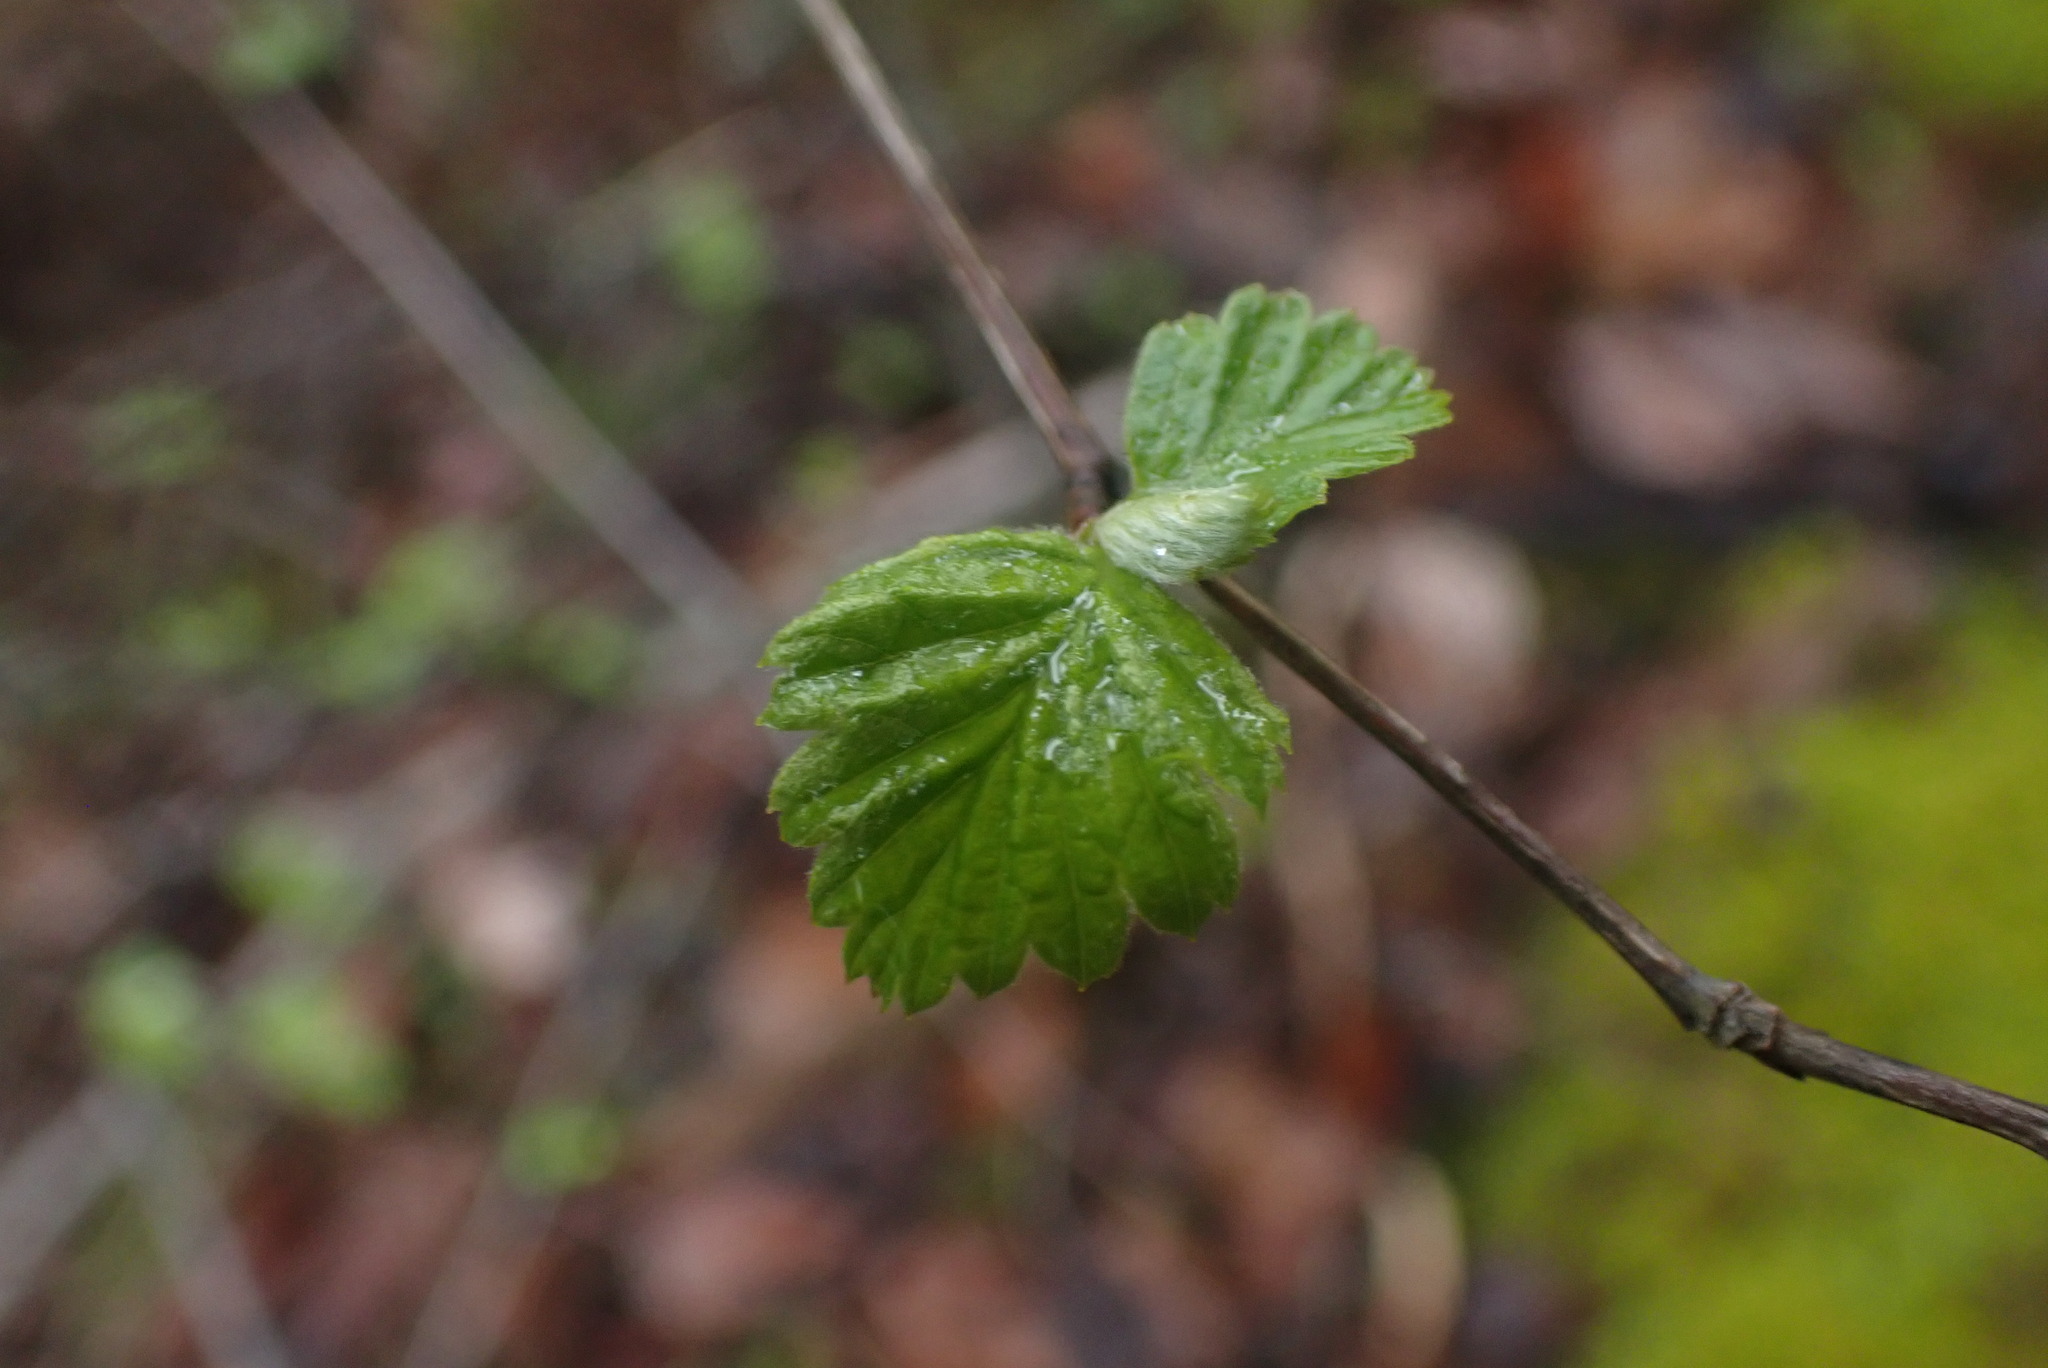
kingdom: Plantae
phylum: Tracheophyta
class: Magnoliopsida
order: Rosales
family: Rosaceae
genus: Holodiscus
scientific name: Holodiscus discolor
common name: Oceanspray
